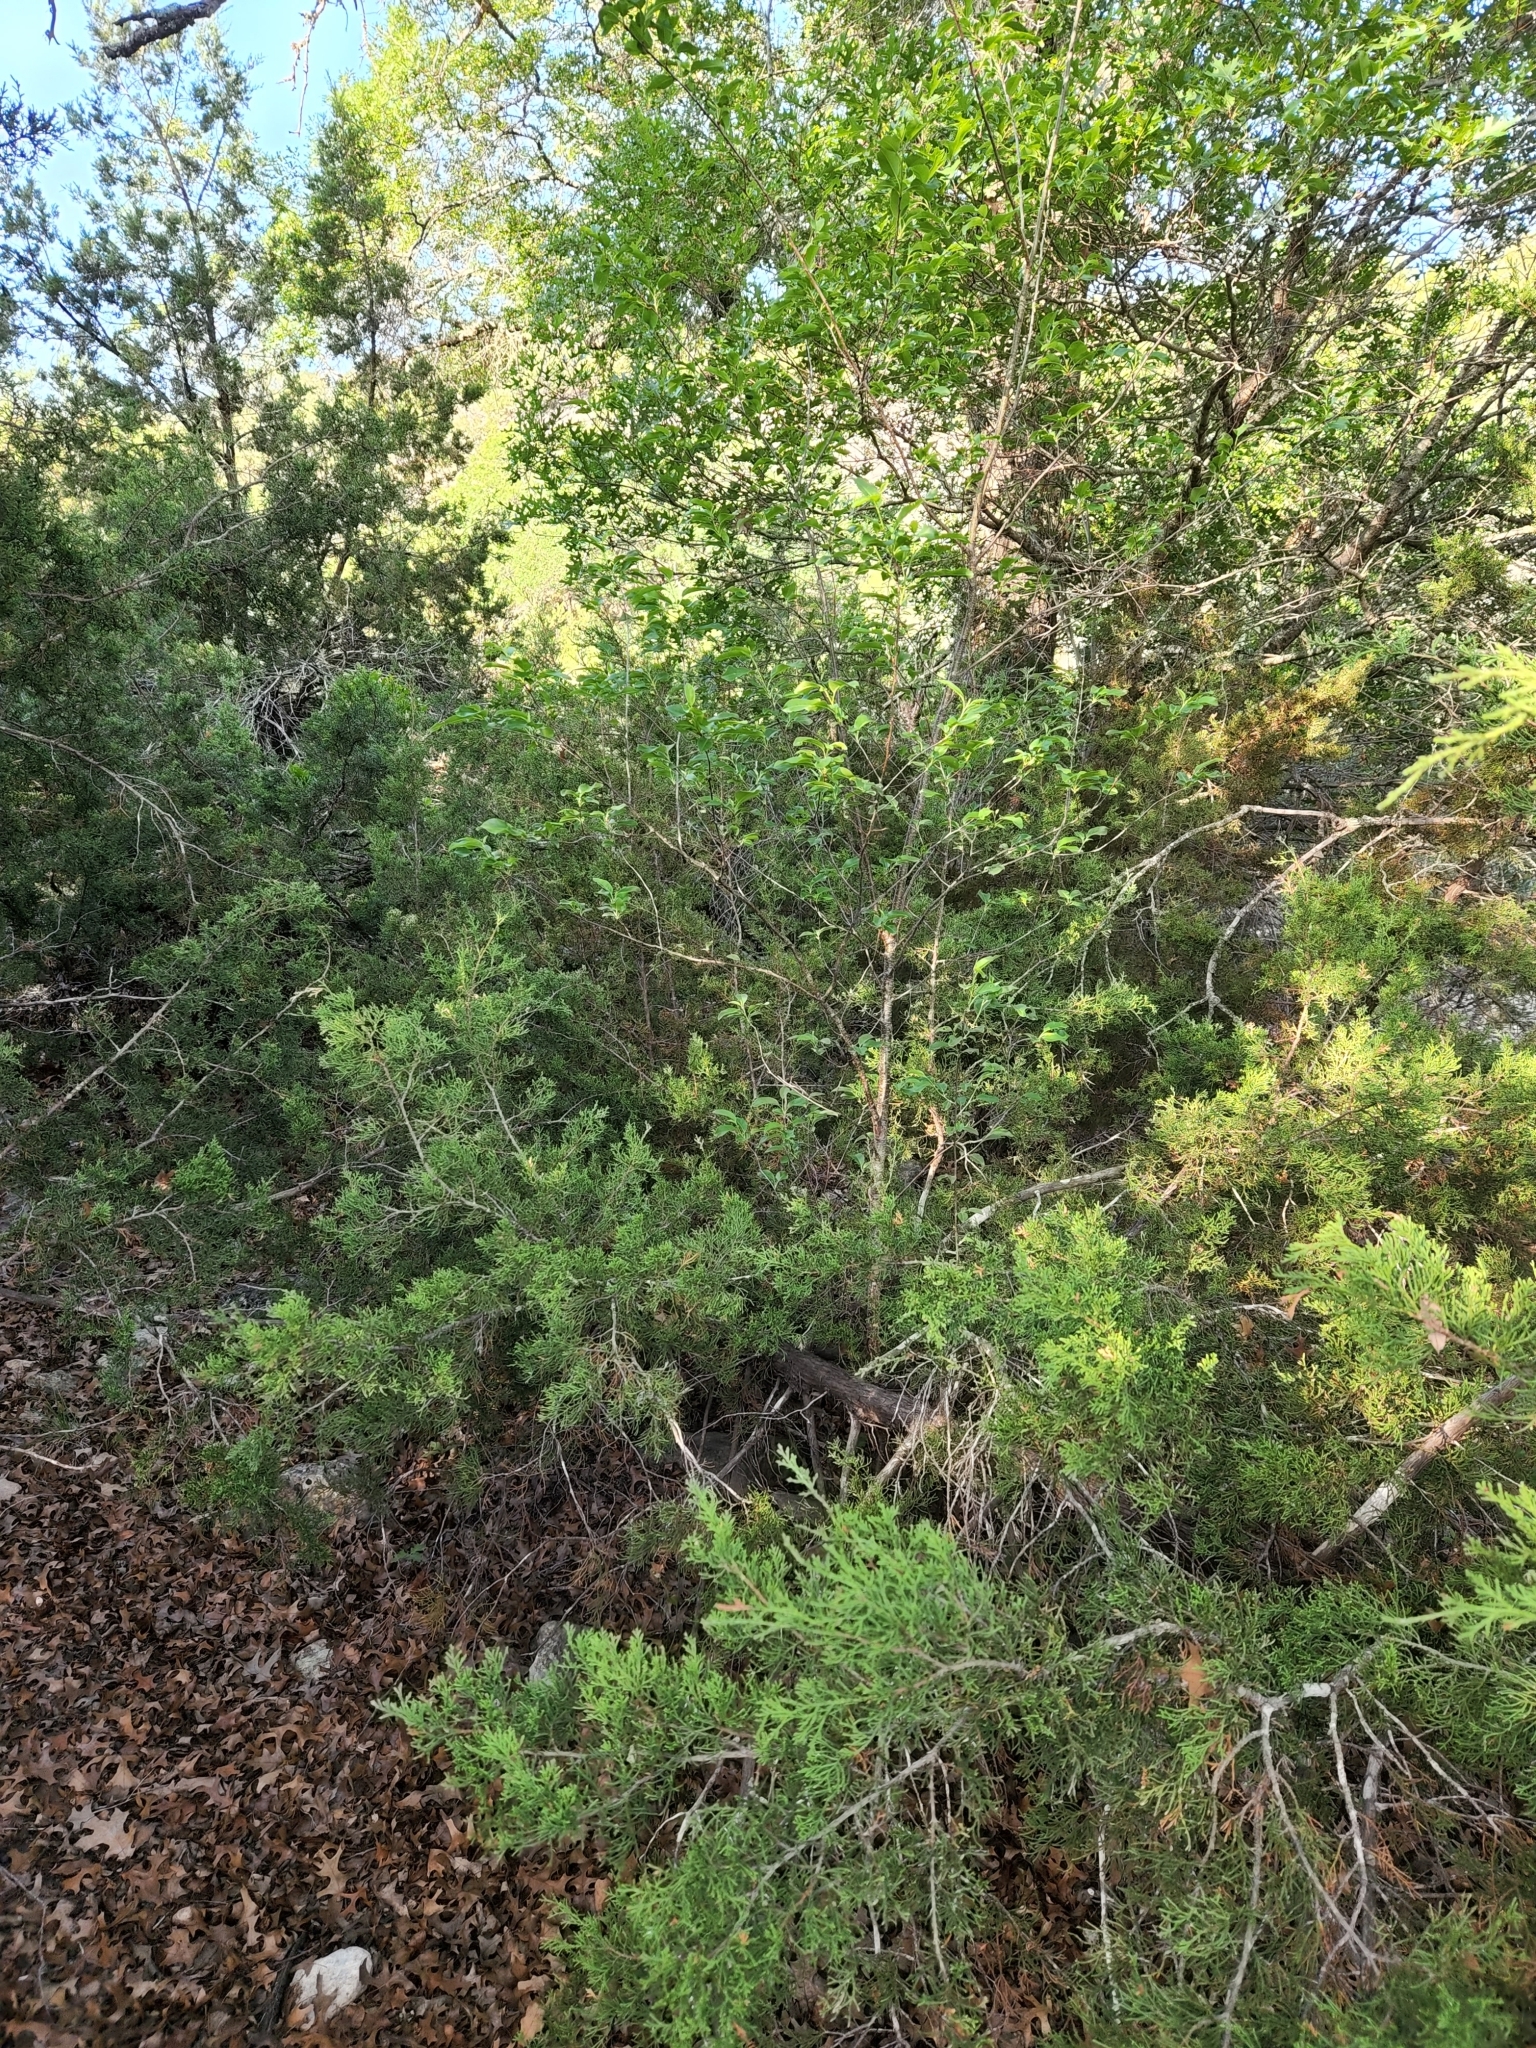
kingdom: Plantae
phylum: Tracheophyta
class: Magnoliopsida
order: Rosales
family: Rosaceae
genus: Prunus
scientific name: Prunus serotina
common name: Black cherry
